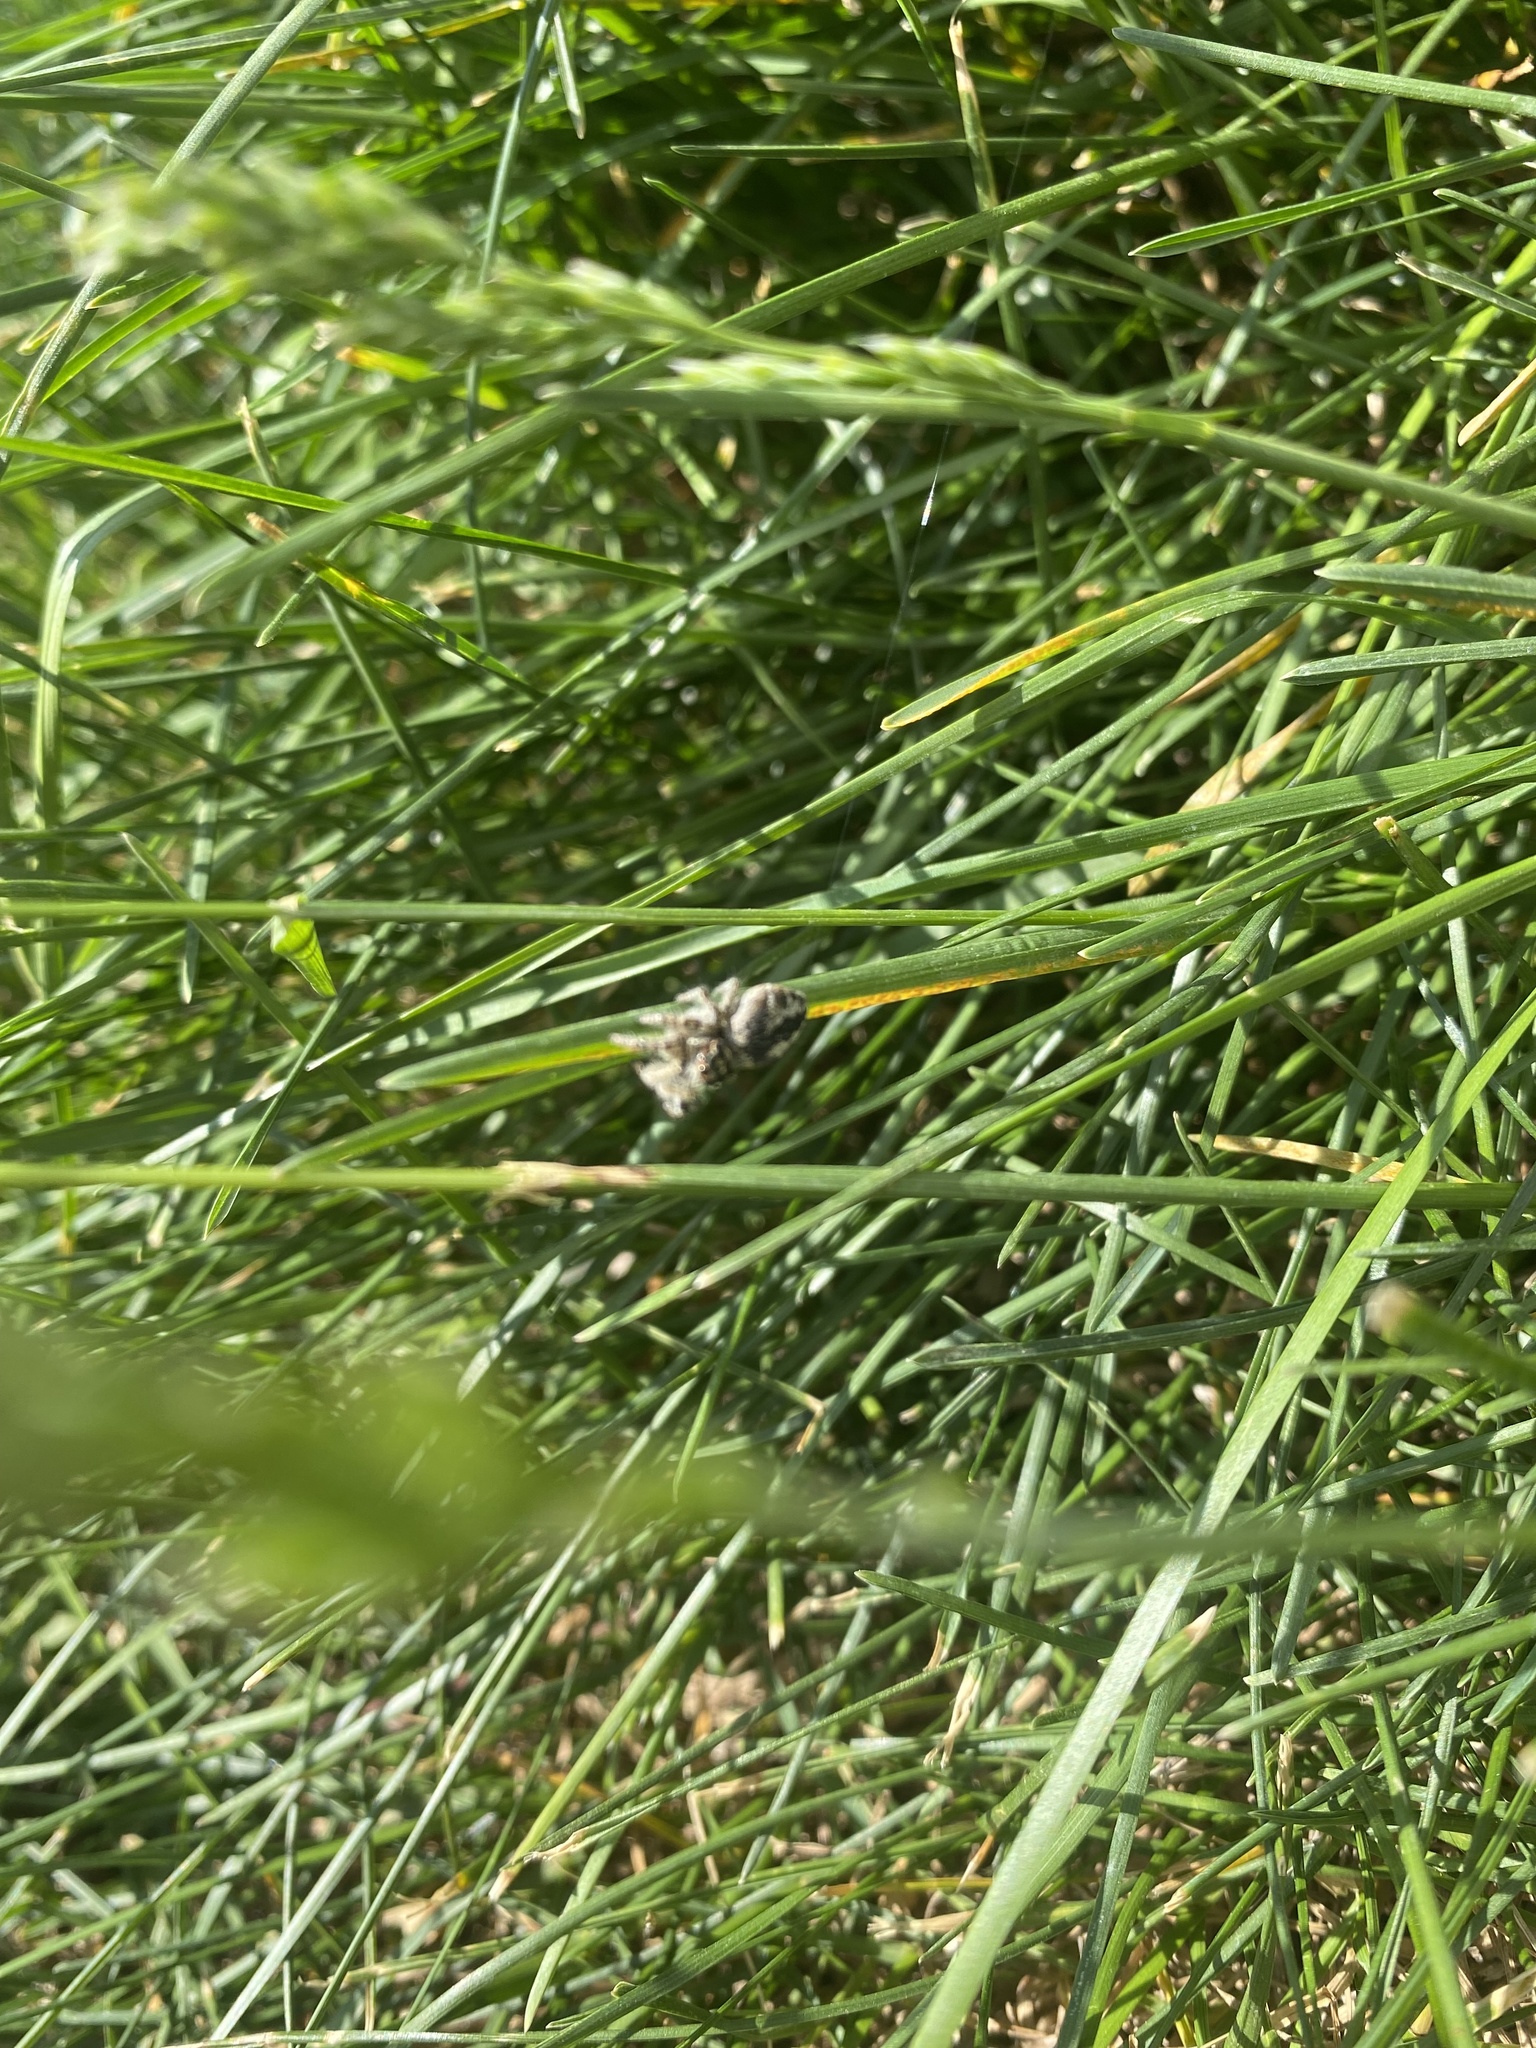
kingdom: Animalia
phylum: Arthropoda
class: Arachnida
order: Araneae
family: Salticidae
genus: Philaeus
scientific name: Philaeus chrysops
